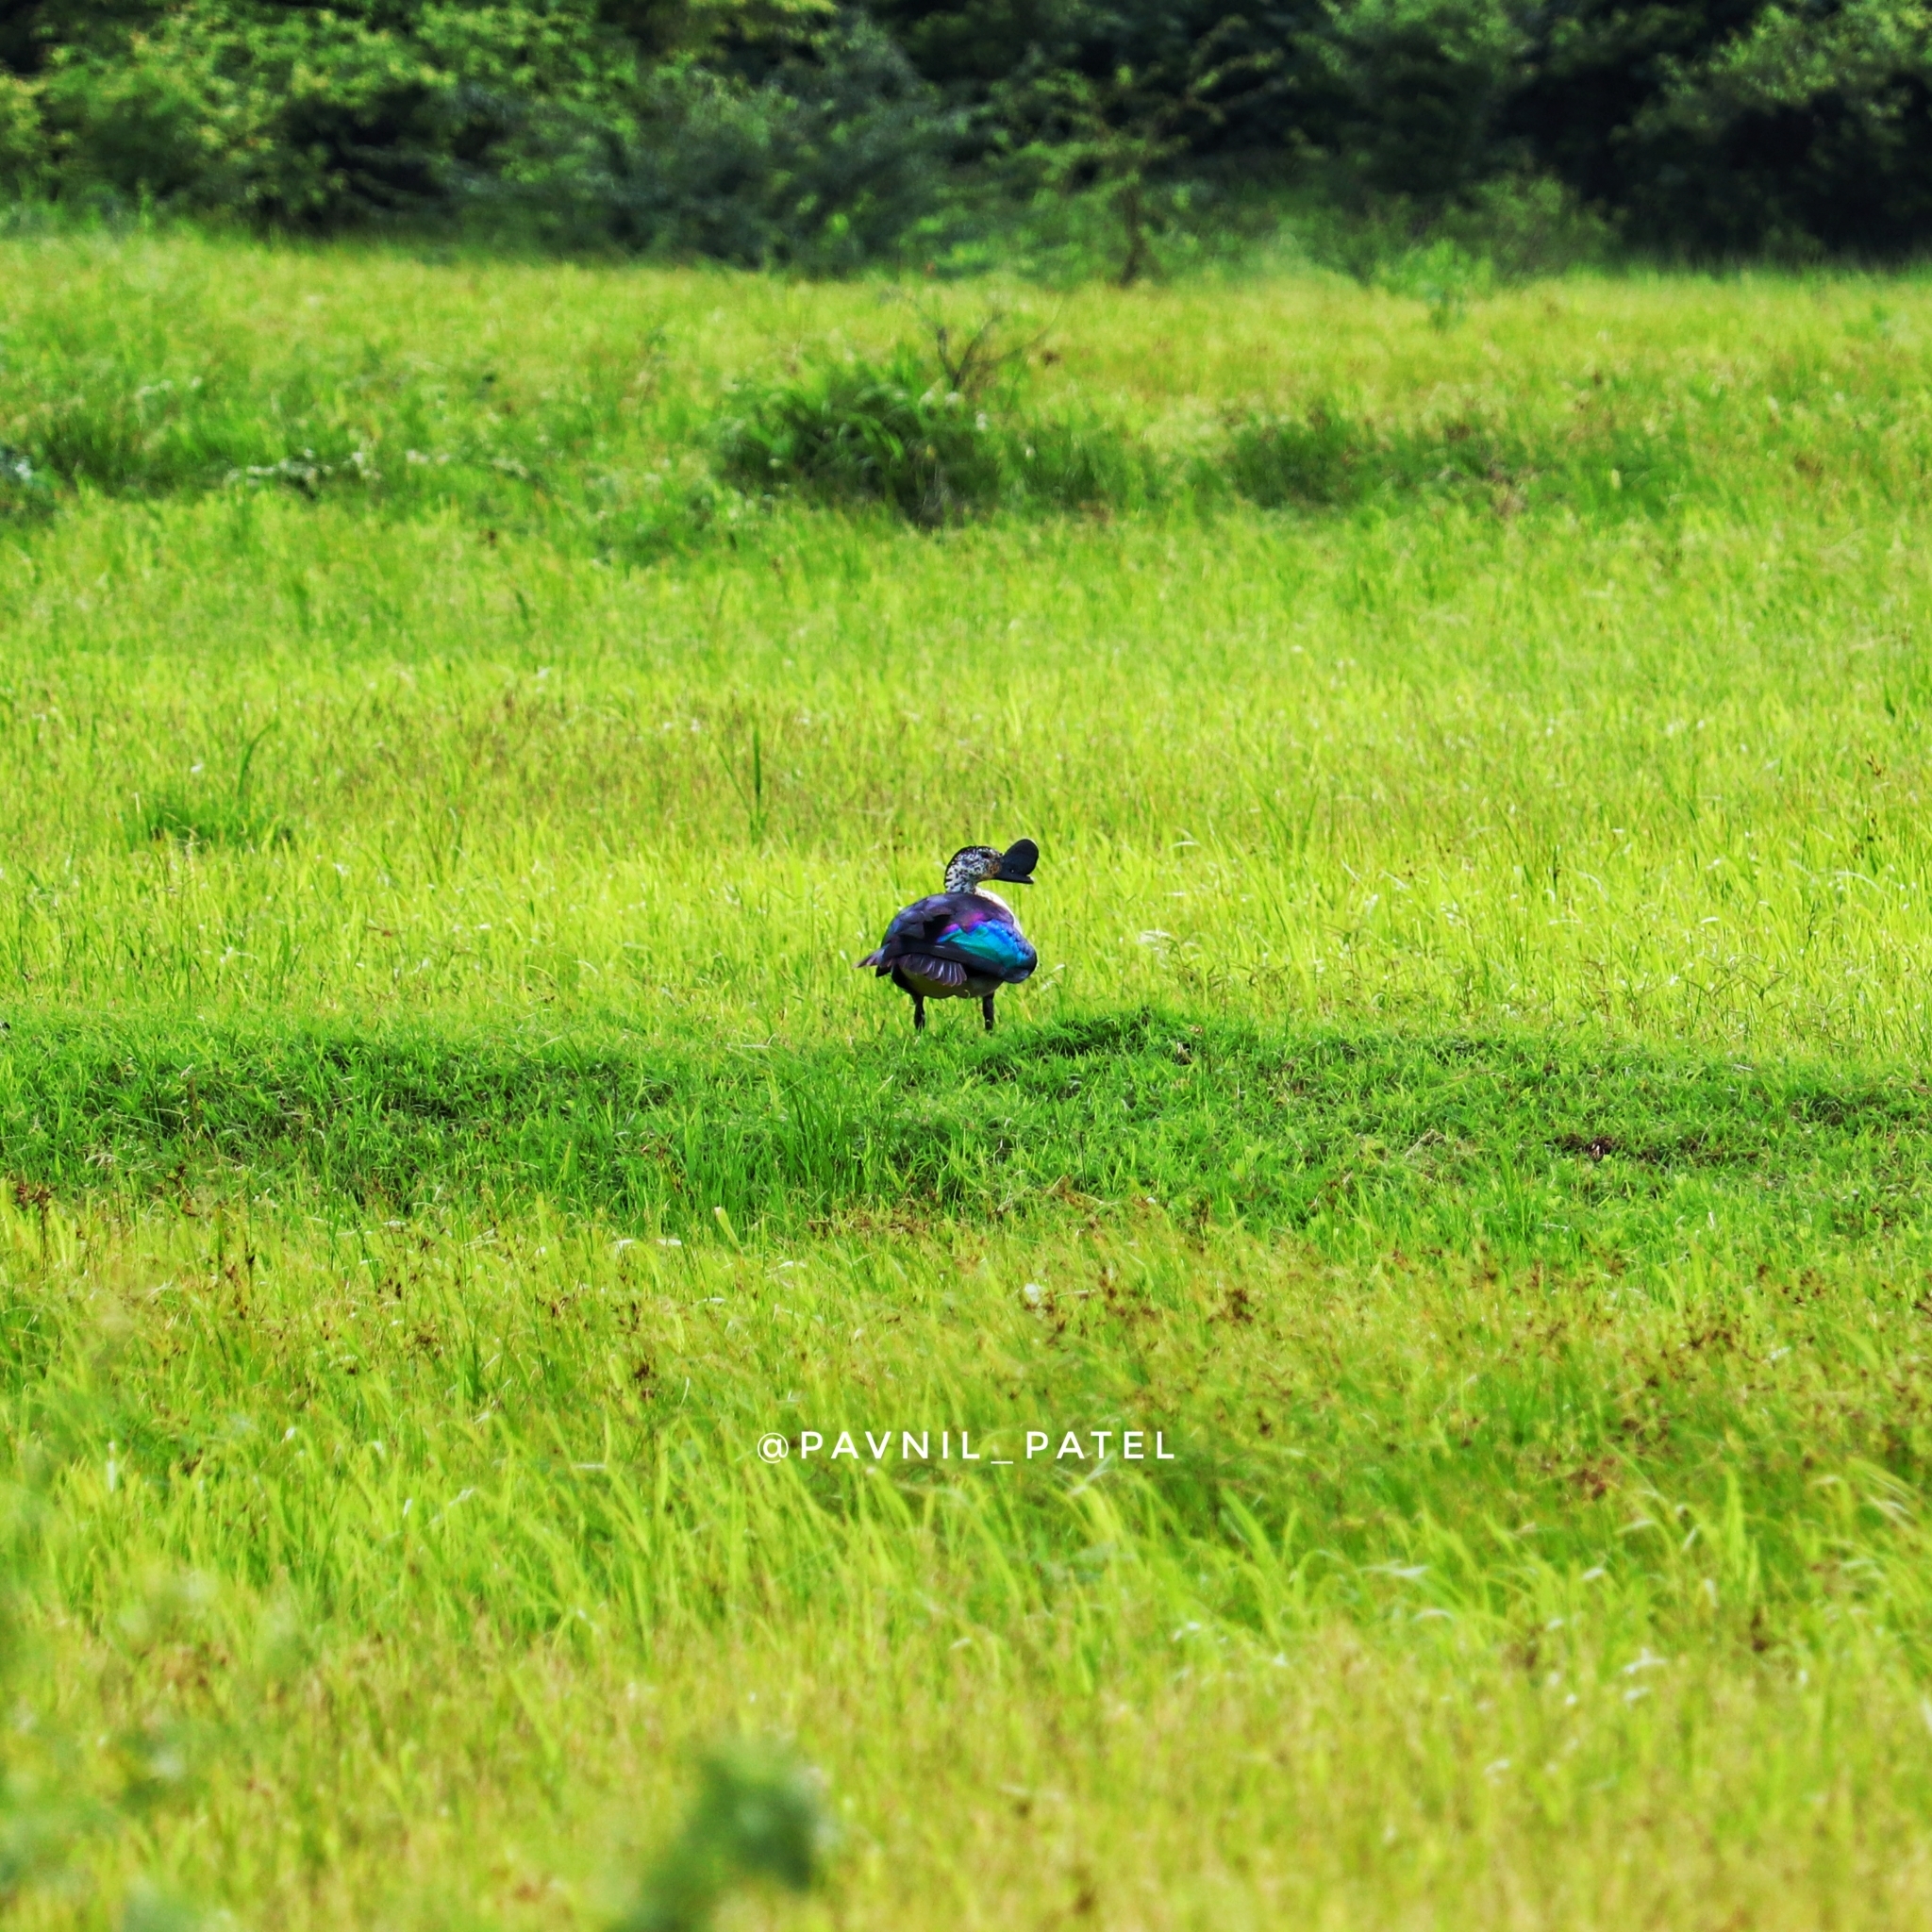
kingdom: Animalia
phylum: Chordata
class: Aves
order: Anseriformes
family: Anatidae
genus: Sarkidiornis
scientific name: Sarkidiornis melanotos
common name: Comb duck
